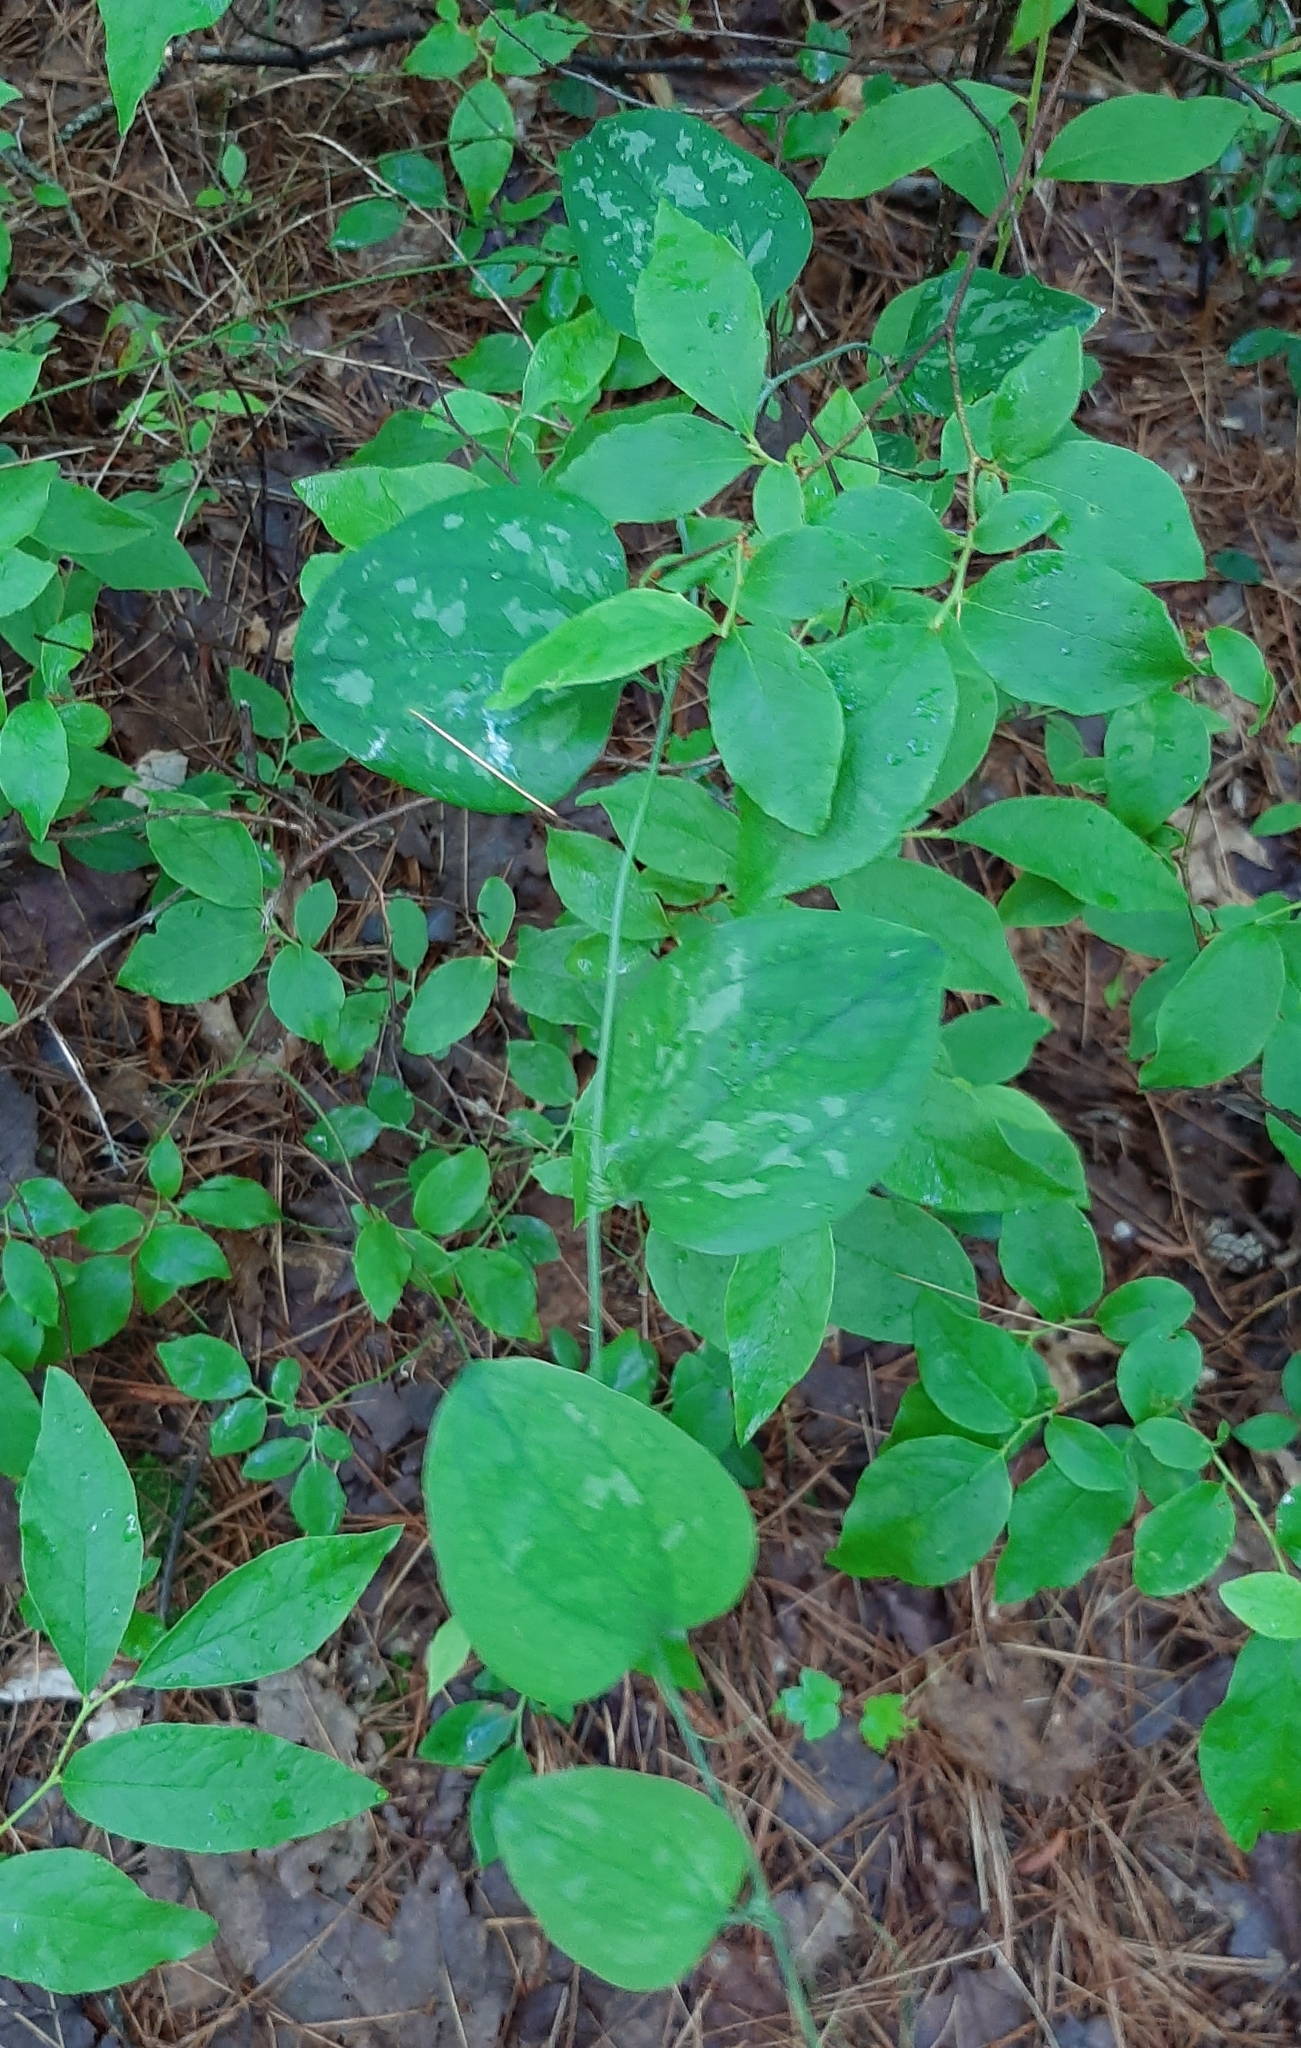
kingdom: Plantae
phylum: Tracheophyta
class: Liliopsida
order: Liliales
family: Smilacaceae
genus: Smilax
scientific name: Smilax glauca
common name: Cat greenbrier
